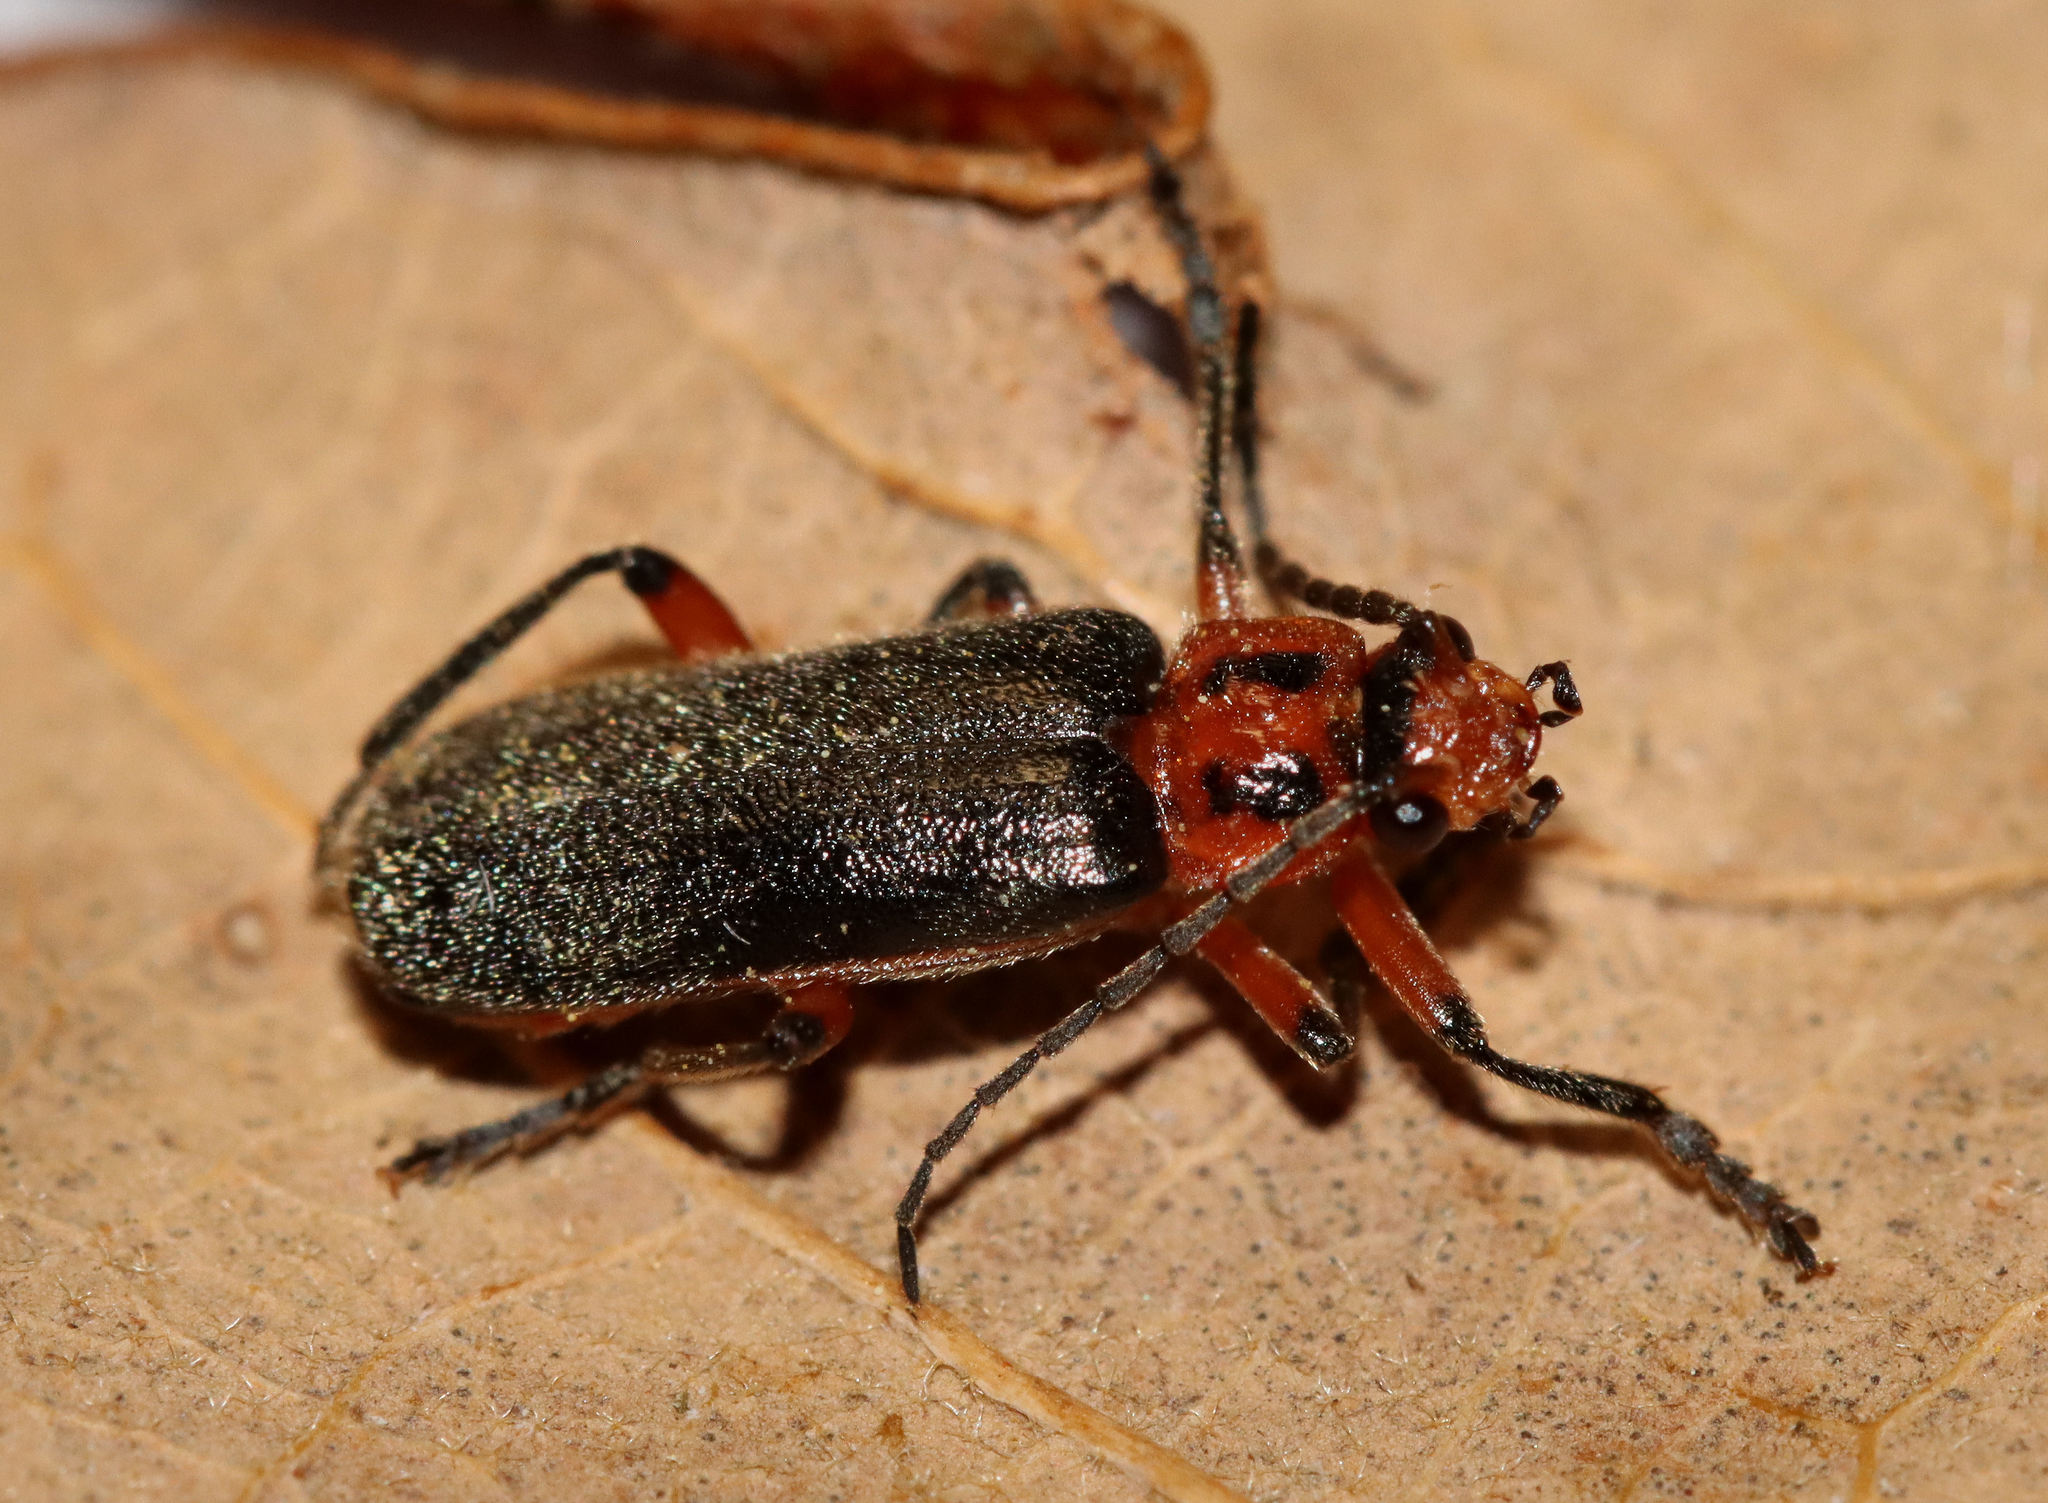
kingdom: Animalia
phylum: Arthropoda
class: Insecta
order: Coleoptera
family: Cantharidae
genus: Atalantycha
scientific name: Atalantycha bilineata
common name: Two-lined leatherwing
